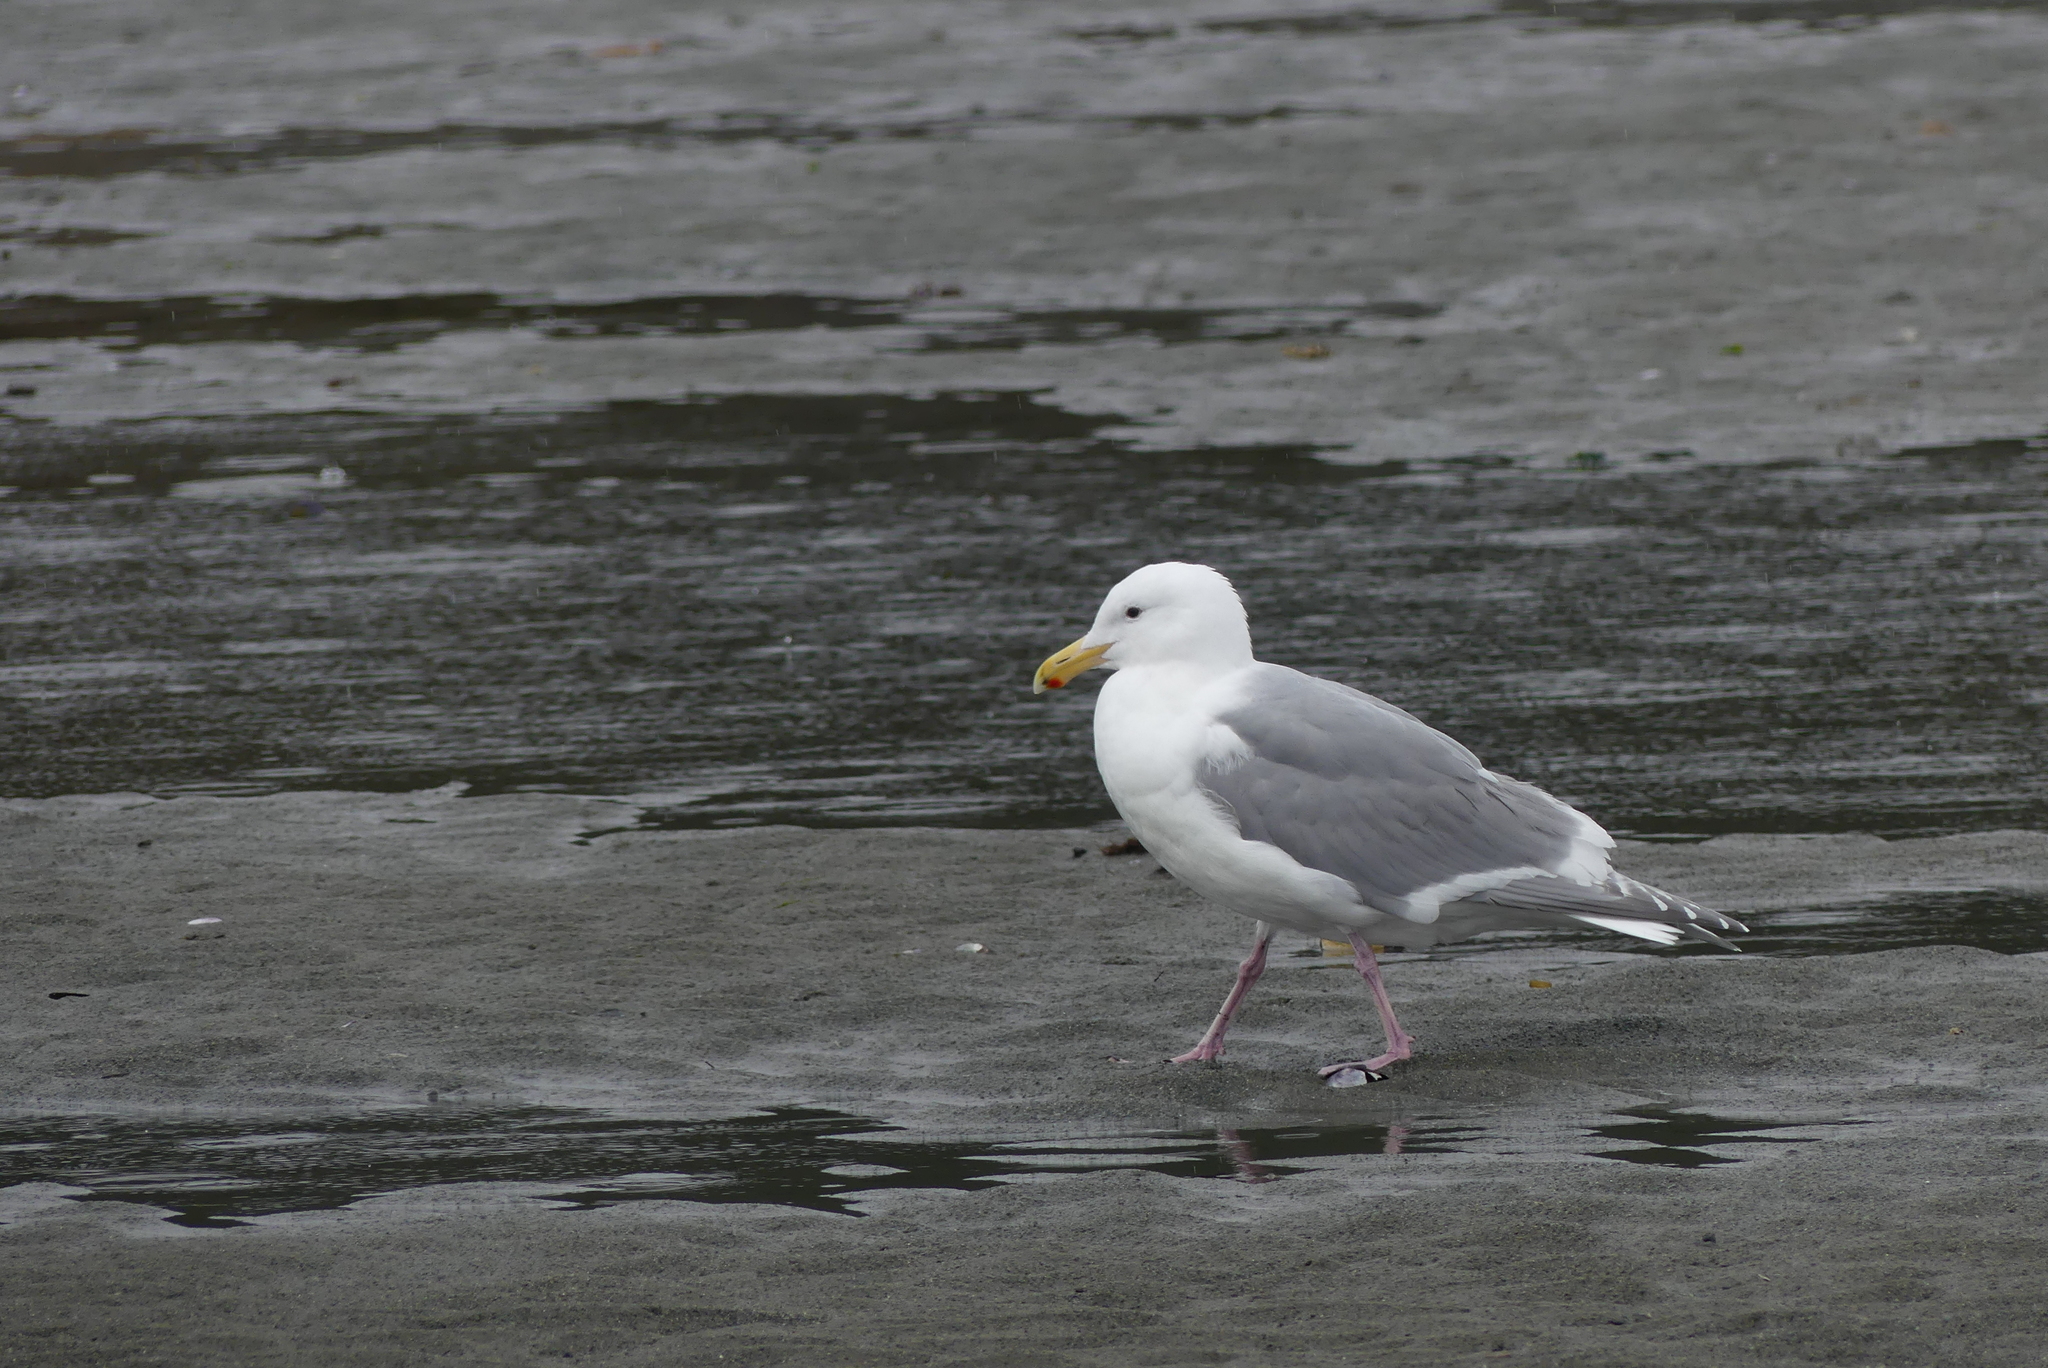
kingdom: Animalia
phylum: Chordata
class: Aves
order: Charadriiformes
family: Laridae
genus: Larus
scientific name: Larus glaucescens
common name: Glaucous-winged gull
